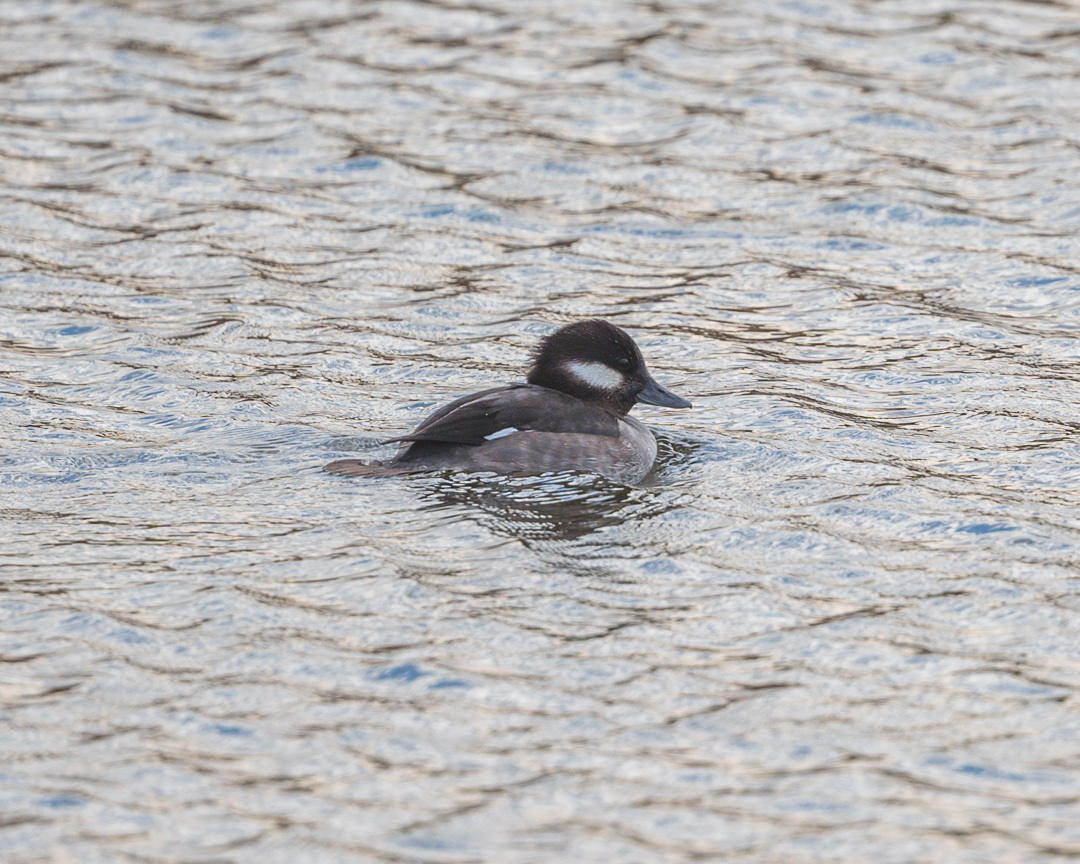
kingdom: Animalia
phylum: Chordata
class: Aves
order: Anseriformes
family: Anatidae
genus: Bucephala
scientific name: Bucephala albeola
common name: Bufflehead
